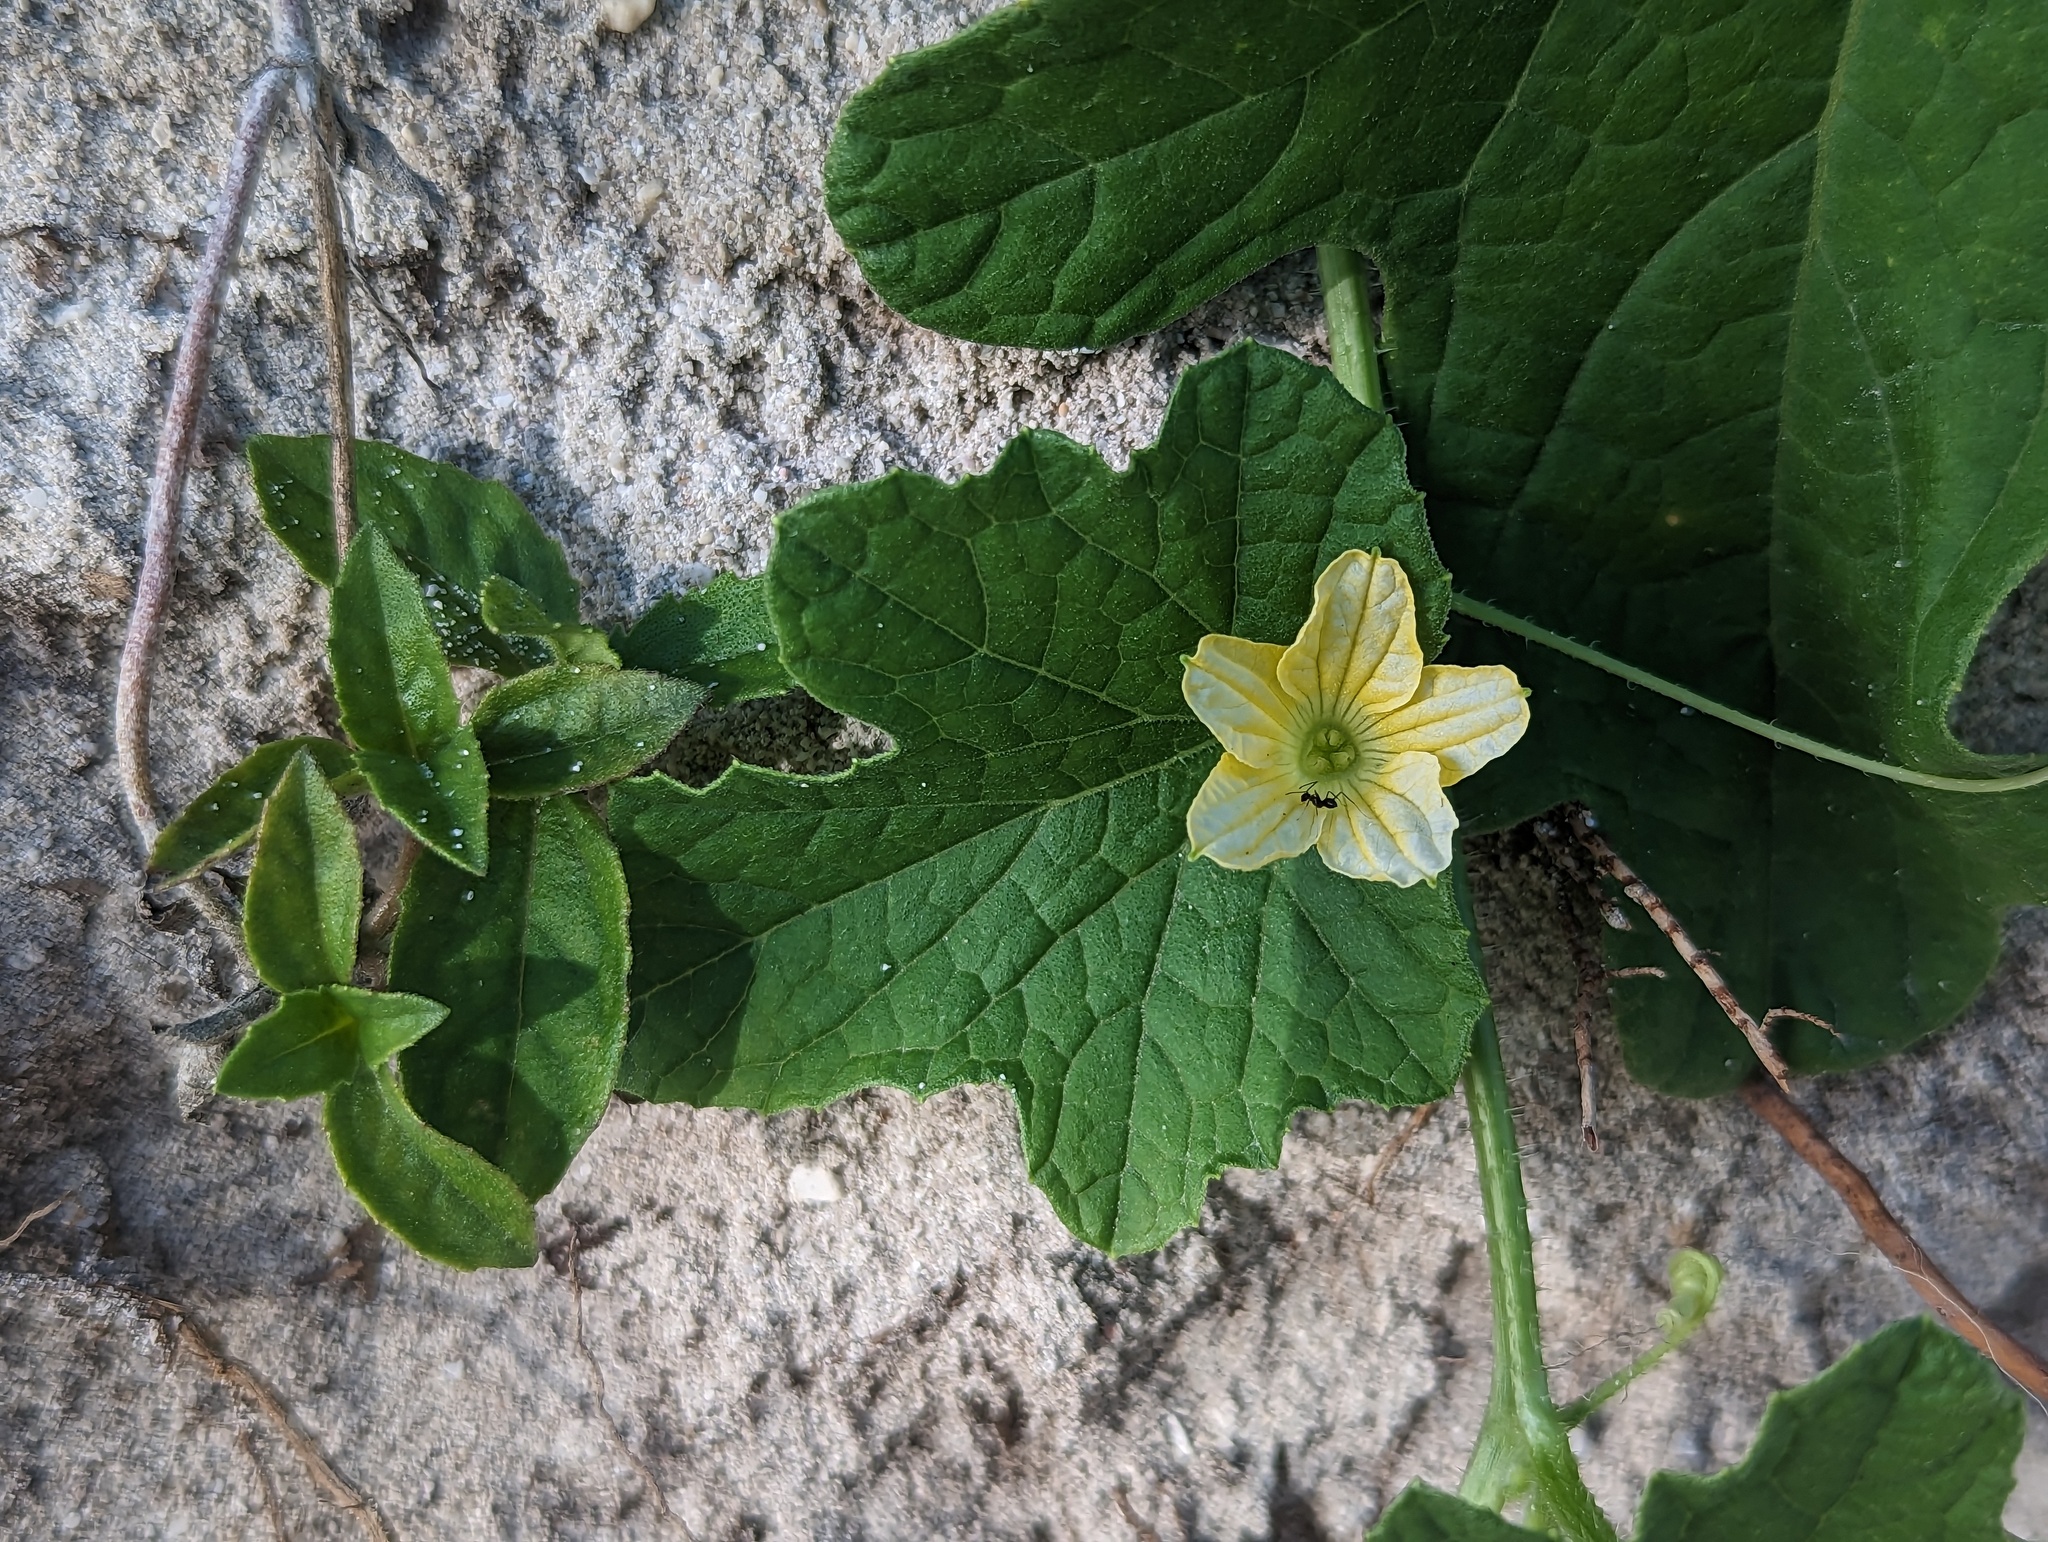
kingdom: Plantae
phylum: Tracheophyta
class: Magnoliopsida
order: Cucurbitales
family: Cucurbitaceae
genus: Cucumis
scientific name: Cucumis melo
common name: Melon
